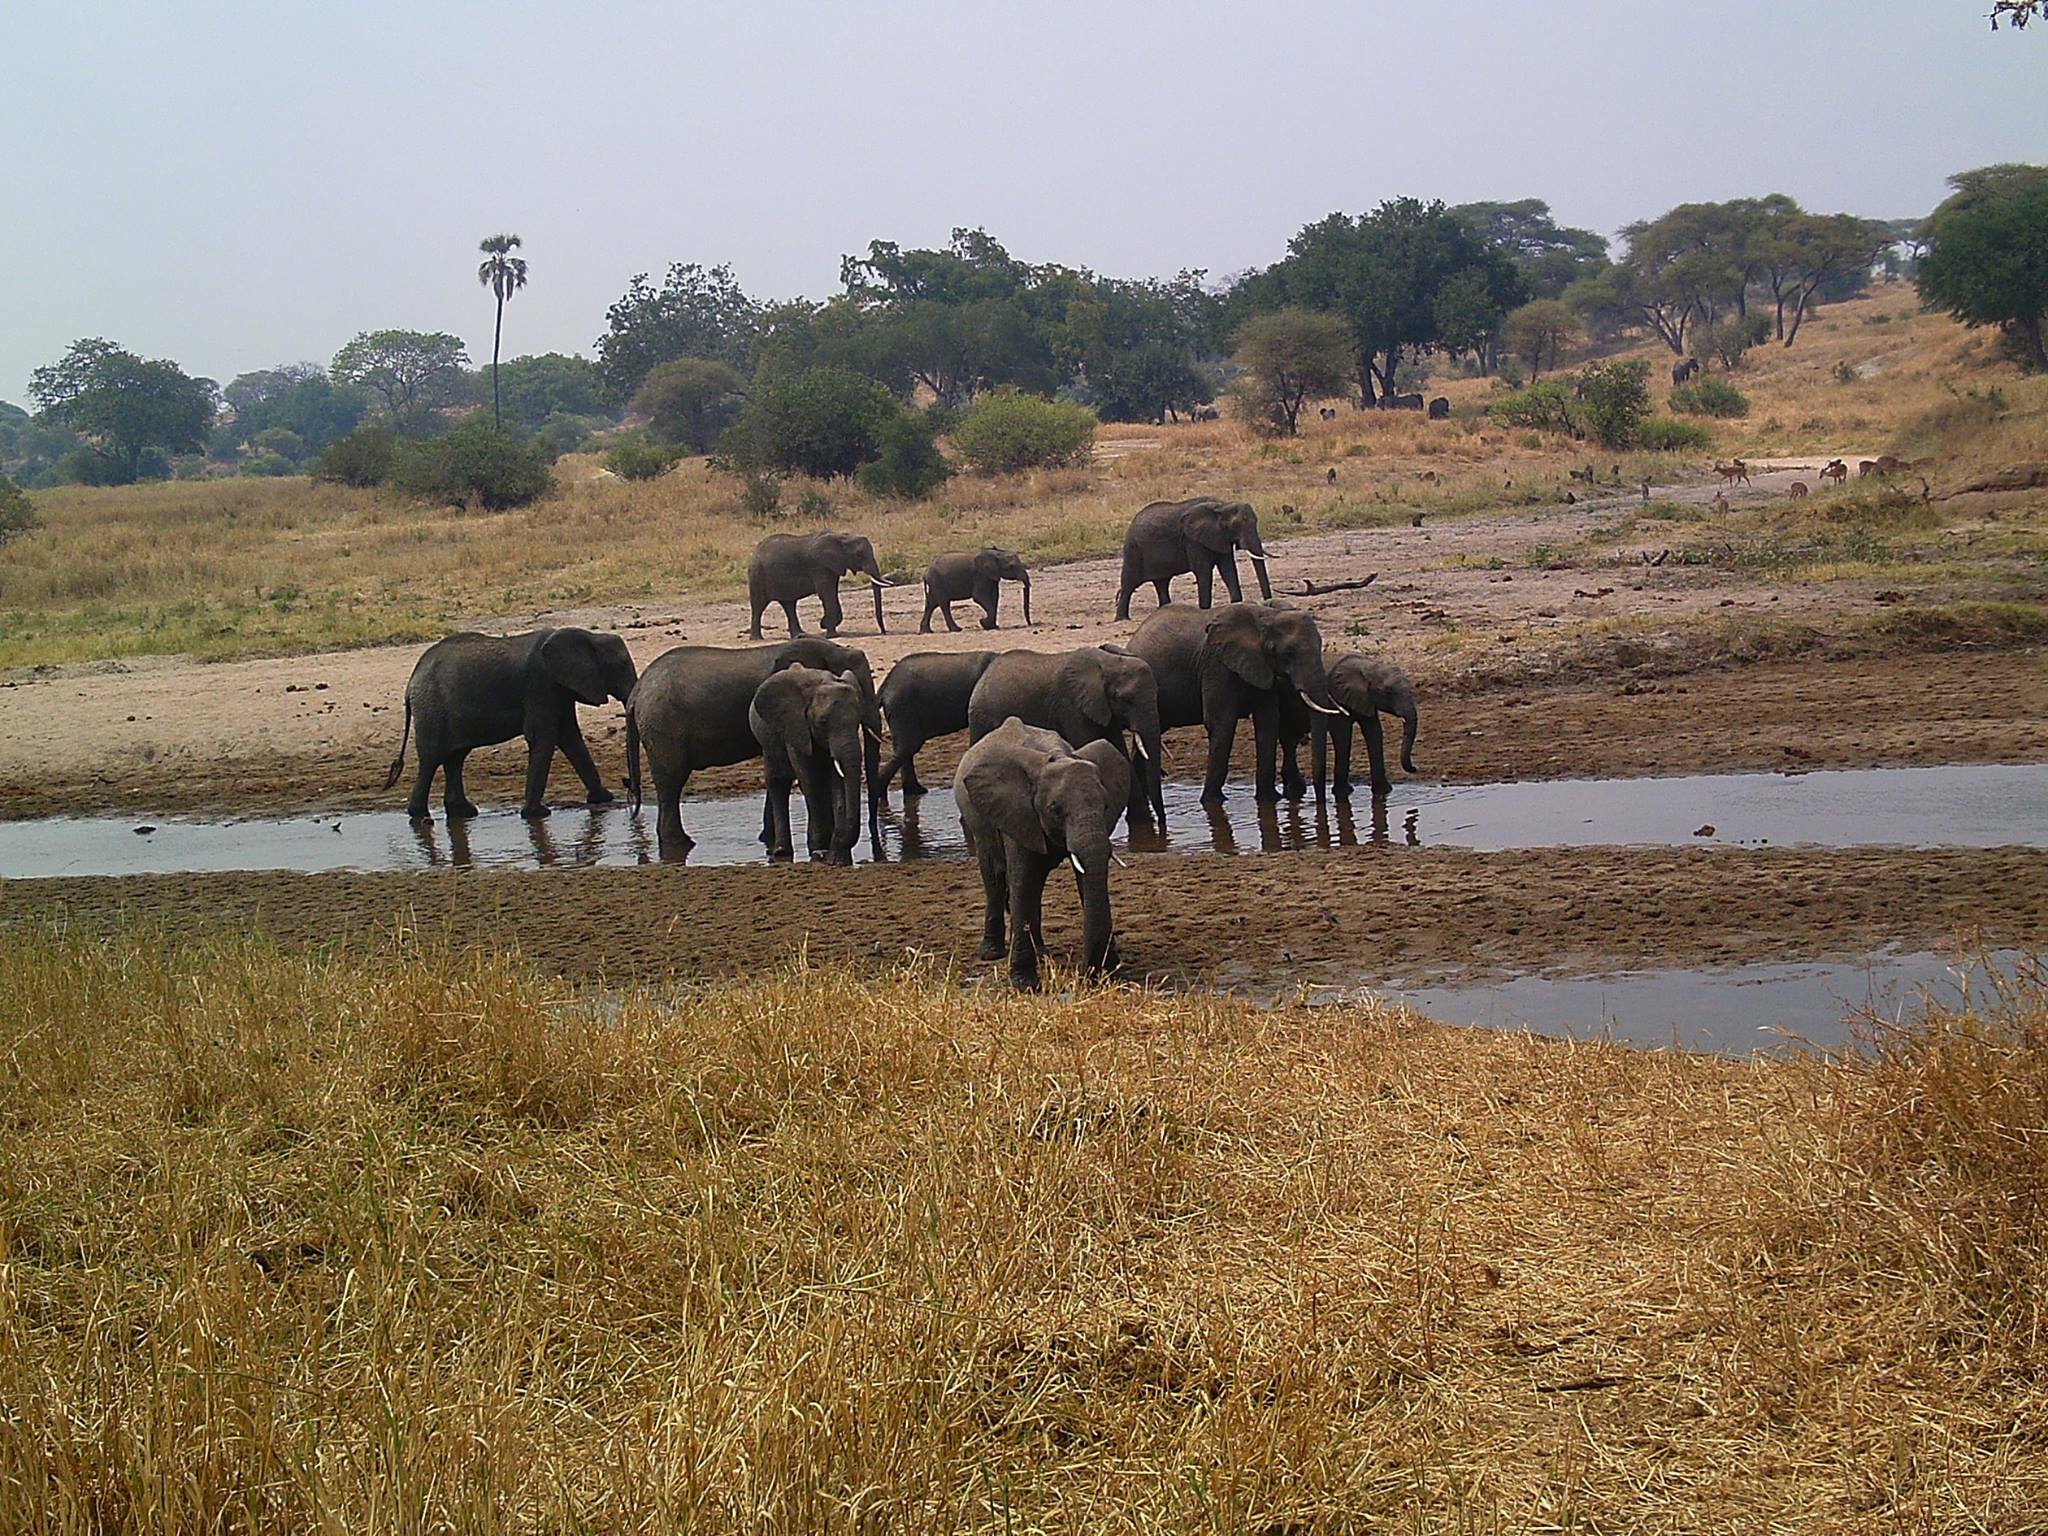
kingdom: Animalia
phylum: Chordata
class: Mammalia
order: Proboscidea
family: Elephantidae
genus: Loxodonta
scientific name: Loxodonta africana
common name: African elephant
